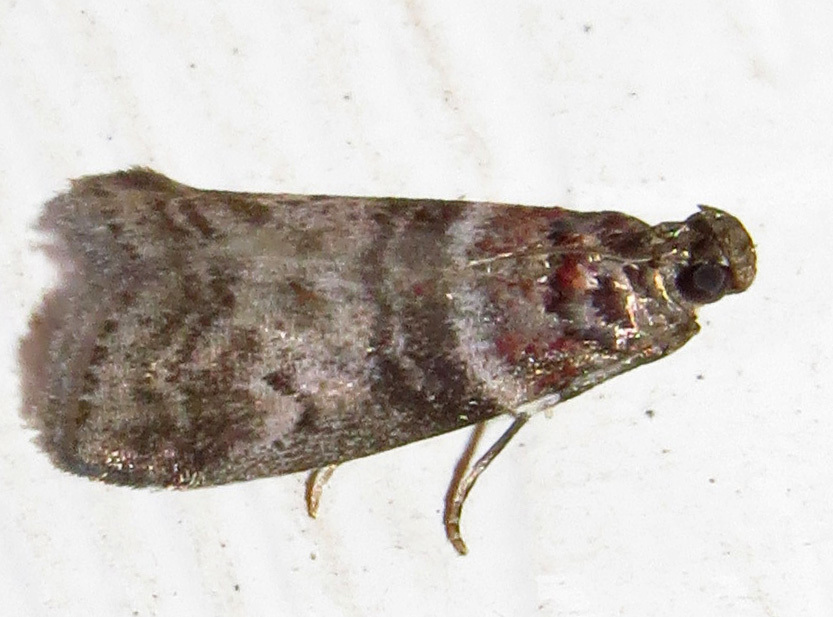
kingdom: Animalia
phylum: Arthropoda
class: Insecta
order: Lepidoptera
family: Pyralidae
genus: Sciota
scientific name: Sciota uvinella
